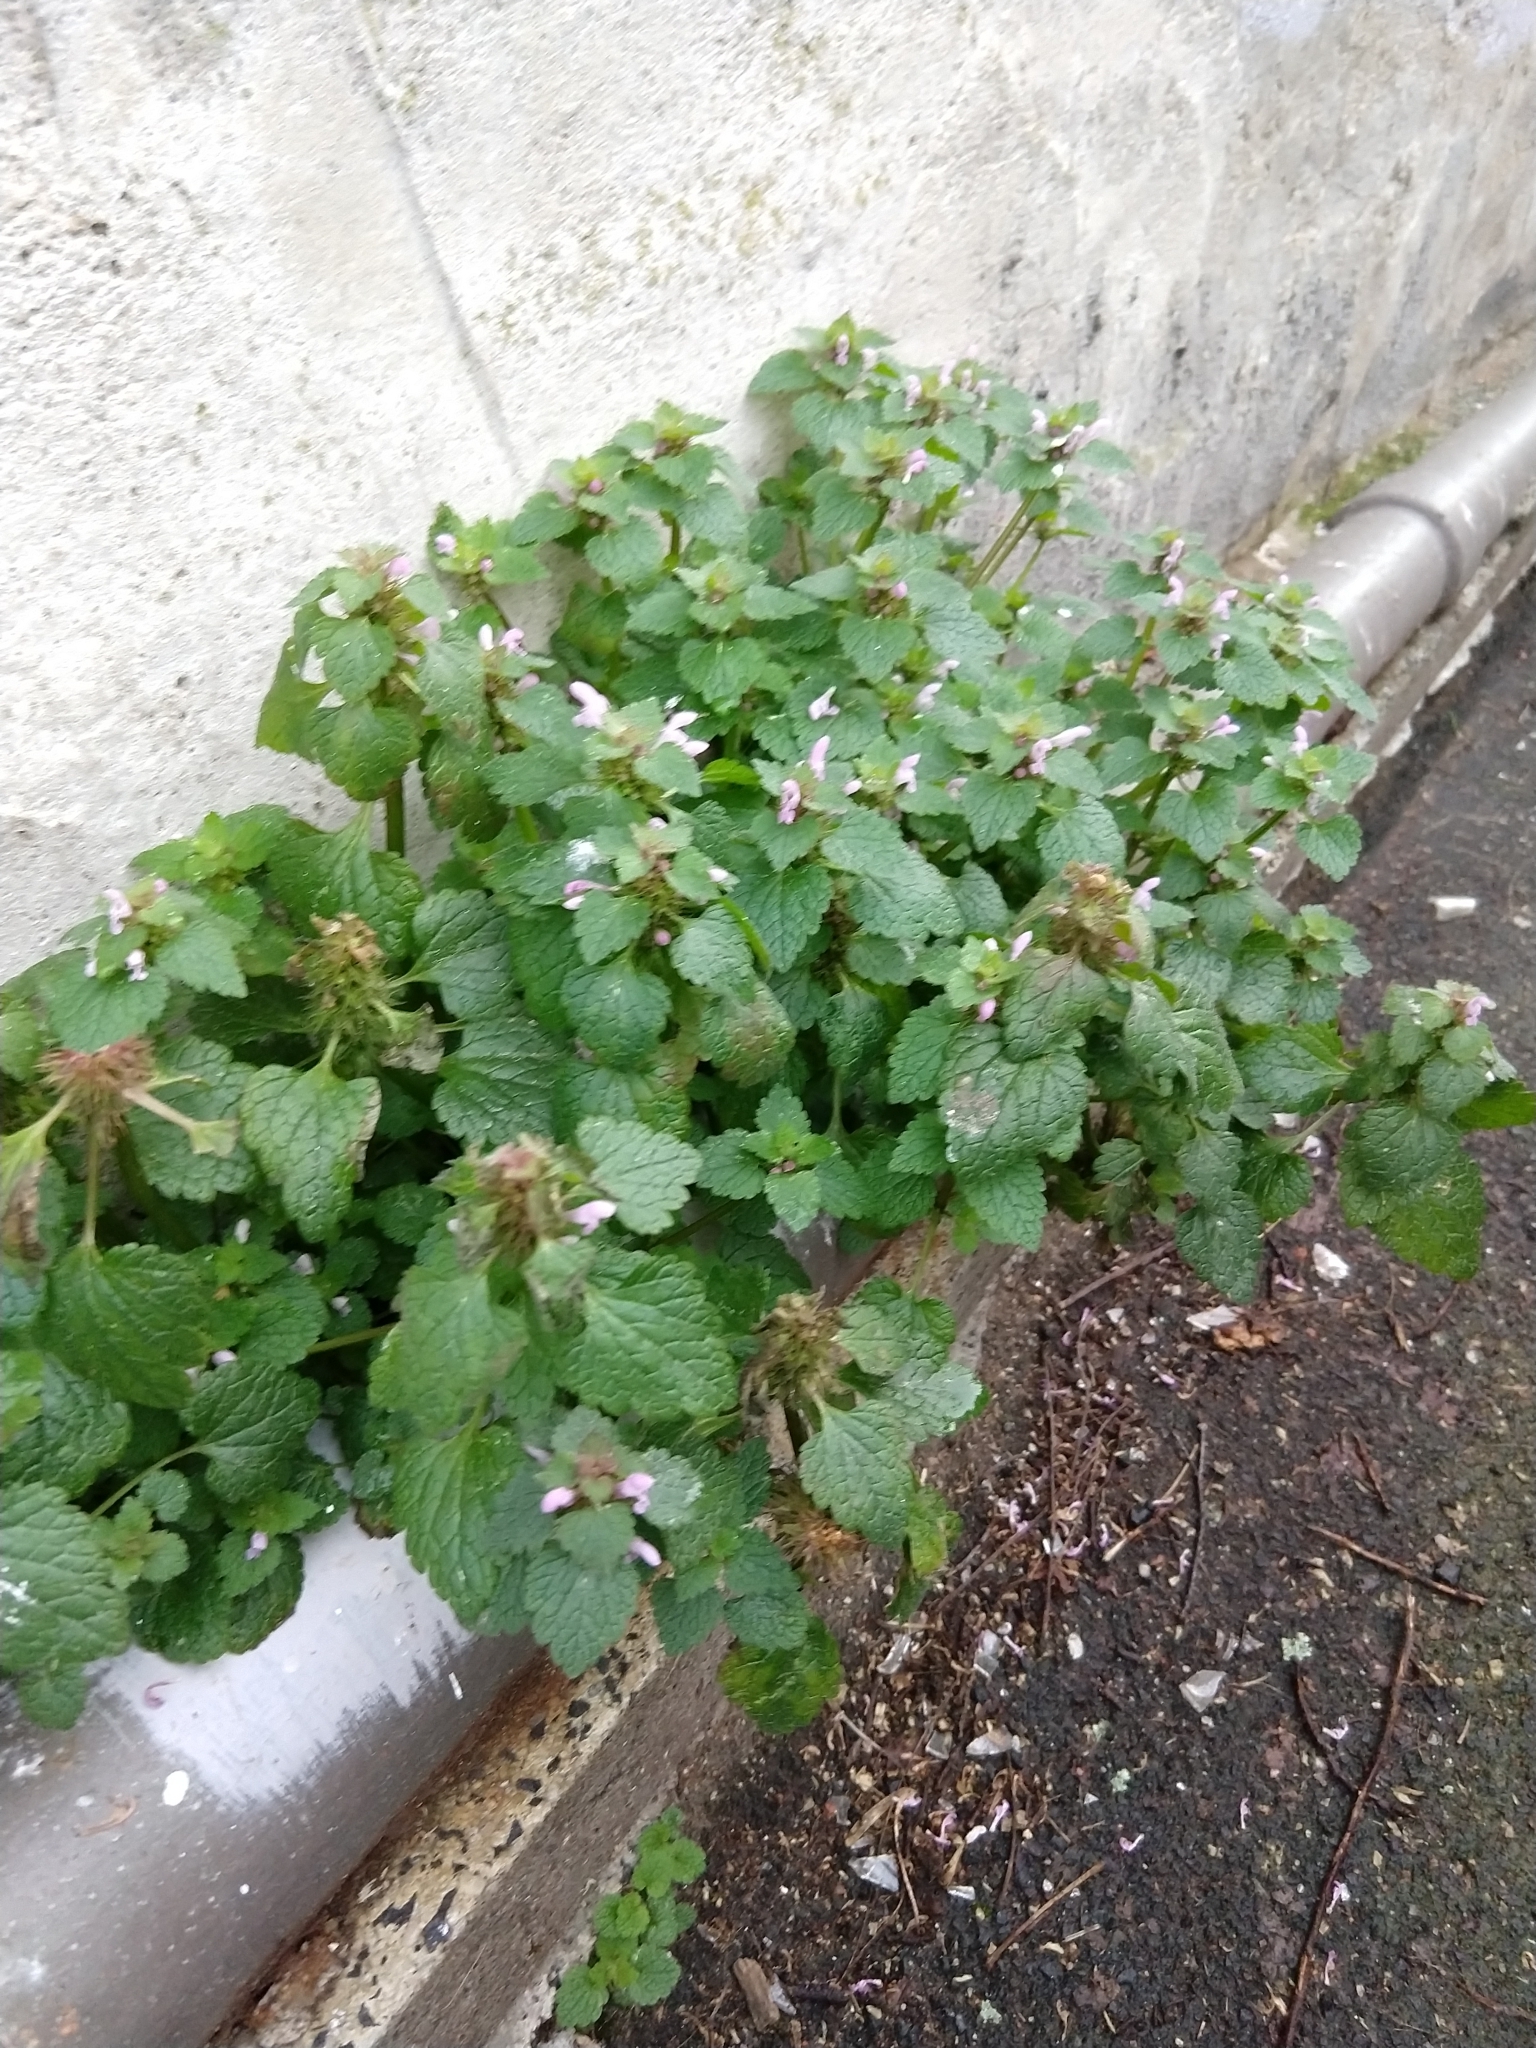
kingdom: Plantae
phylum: Tracheophyta
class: Magnoliopsida
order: Lamiales
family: Lamiaceae
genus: Lamium
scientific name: Lamium purpureum
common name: Red dead-nettle
